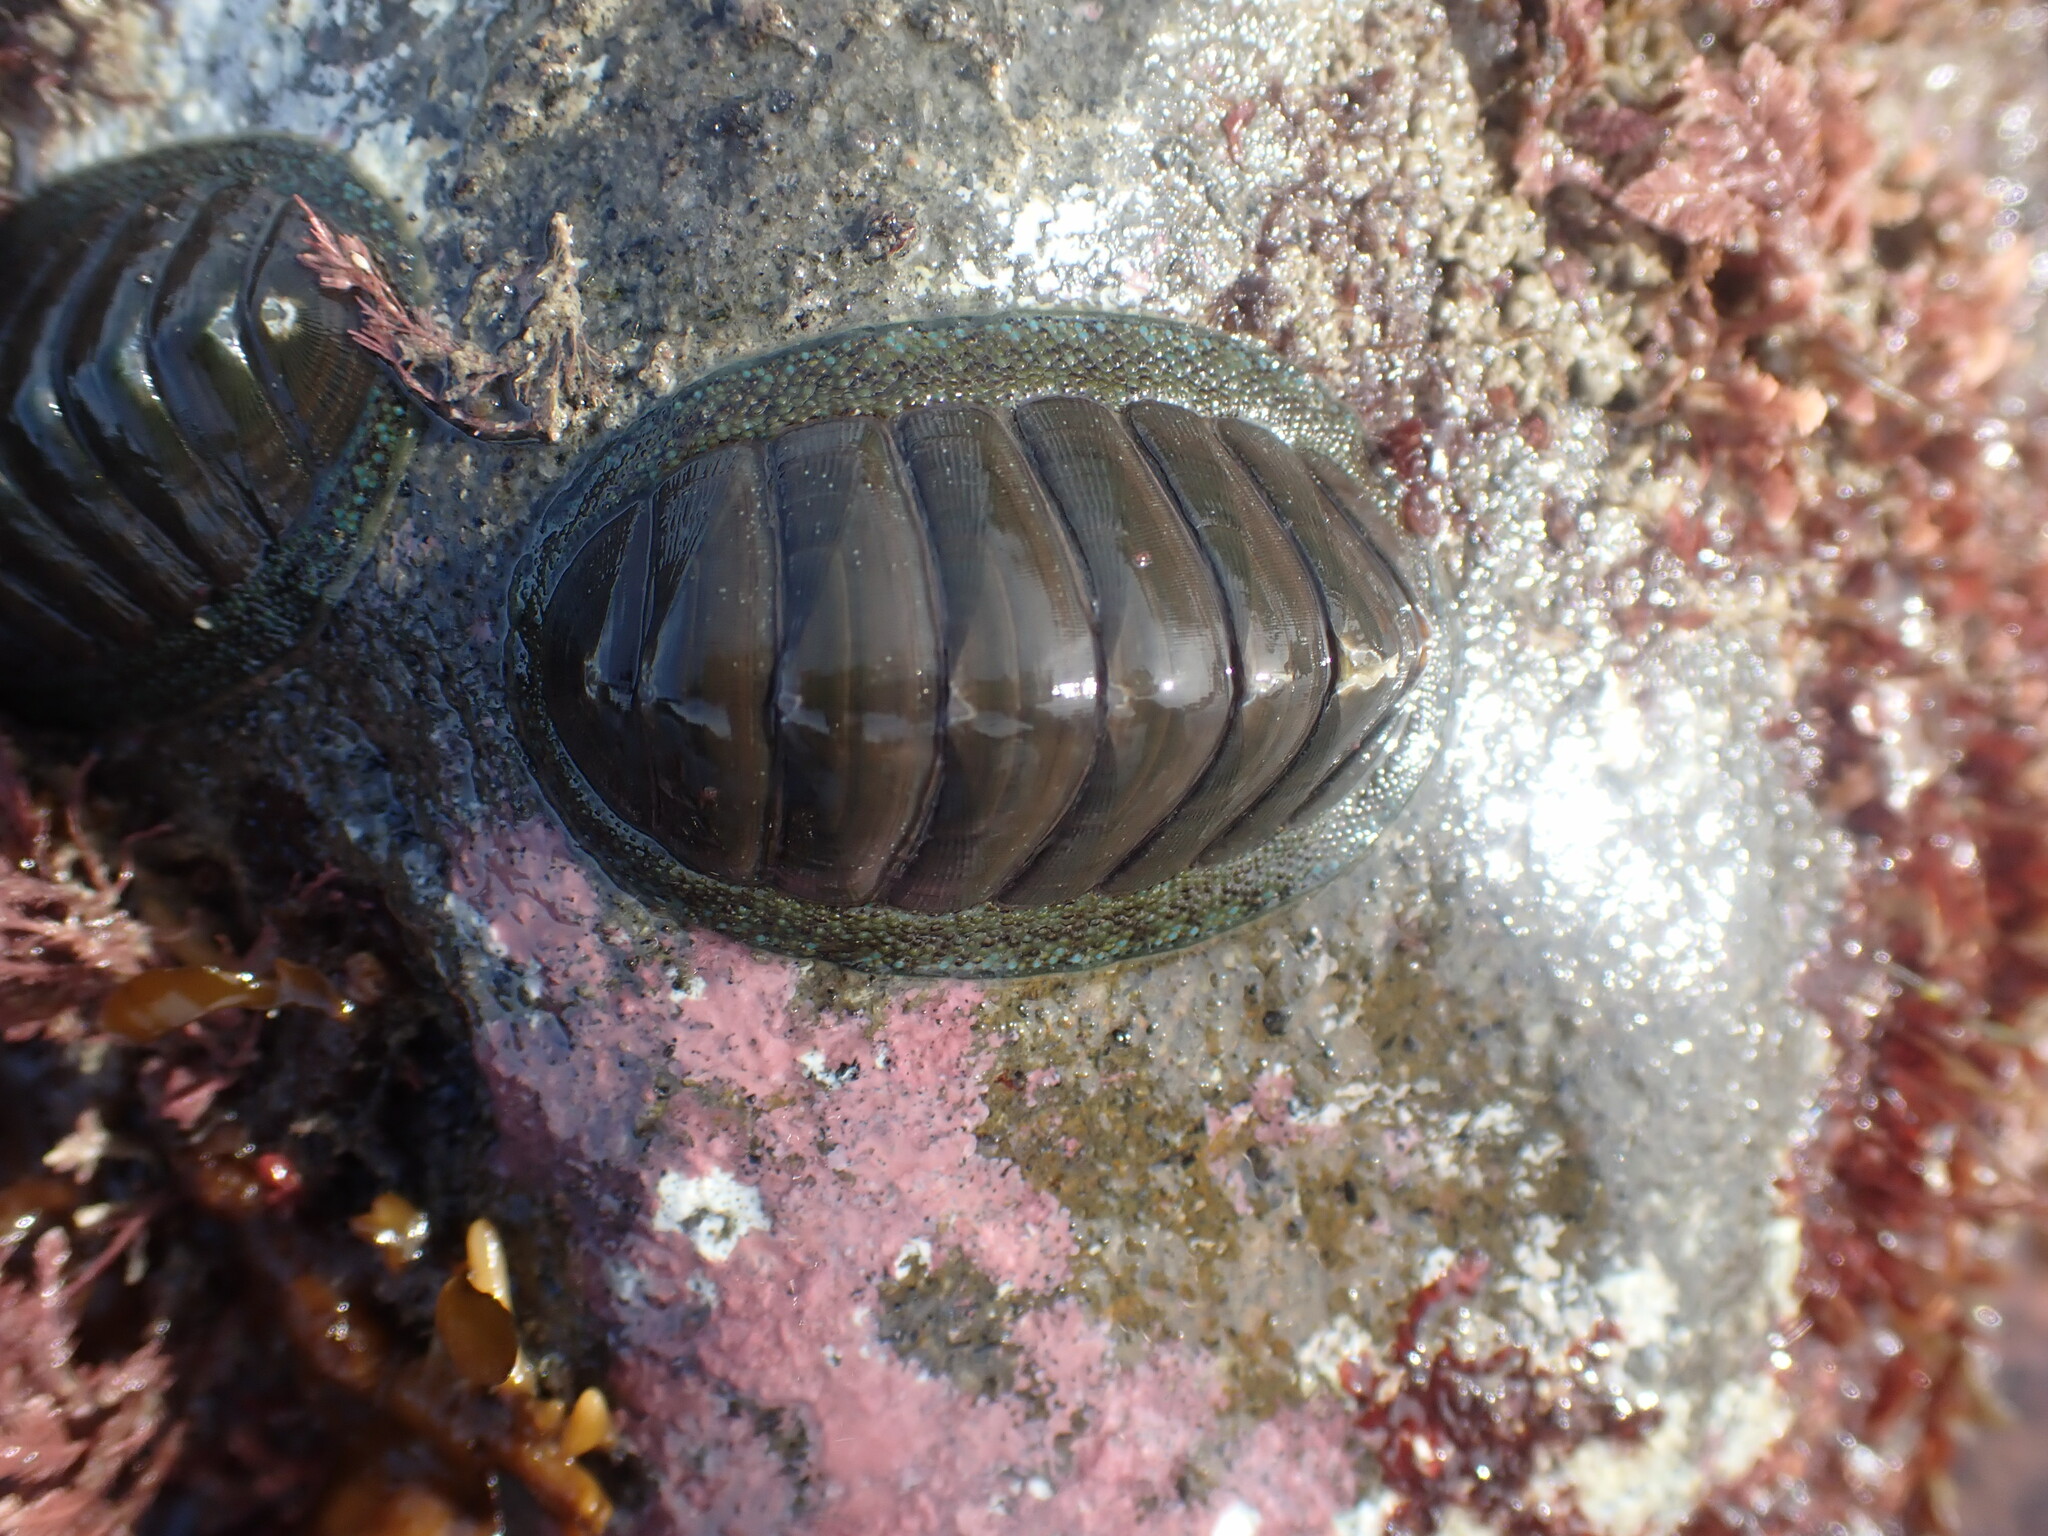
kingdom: Animalia
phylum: Mollusca
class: Polyplacophora
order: Chitonida
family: Chitonidae
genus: Chiton
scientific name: Chiton glaucus
